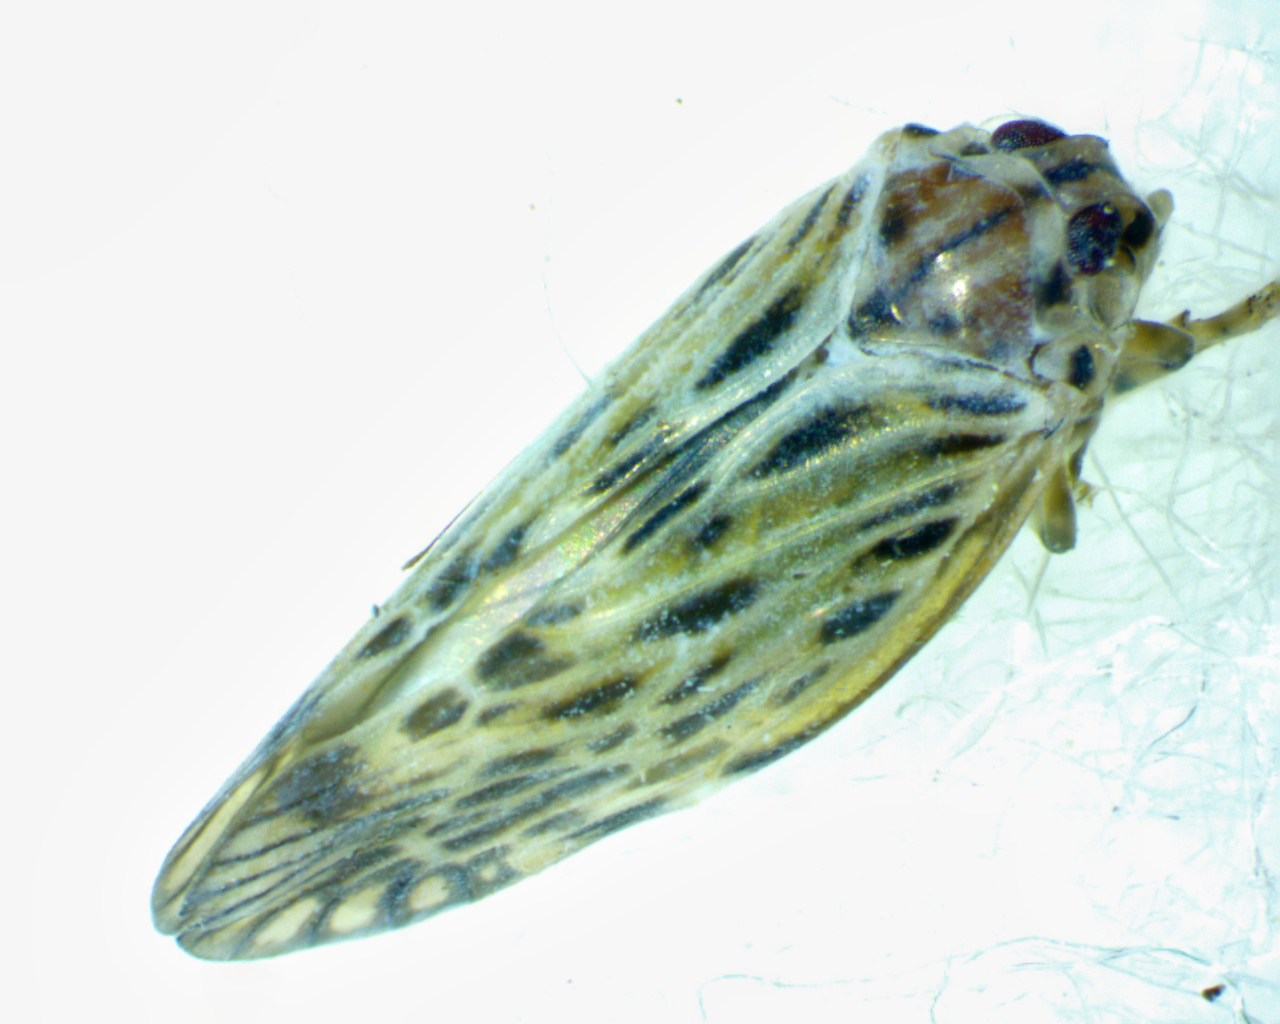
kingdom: Animalia
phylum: Arthropoda
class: Insecta
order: Hemiptera
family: Derbidae
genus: Cedusa
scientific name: Cedusa maculata
